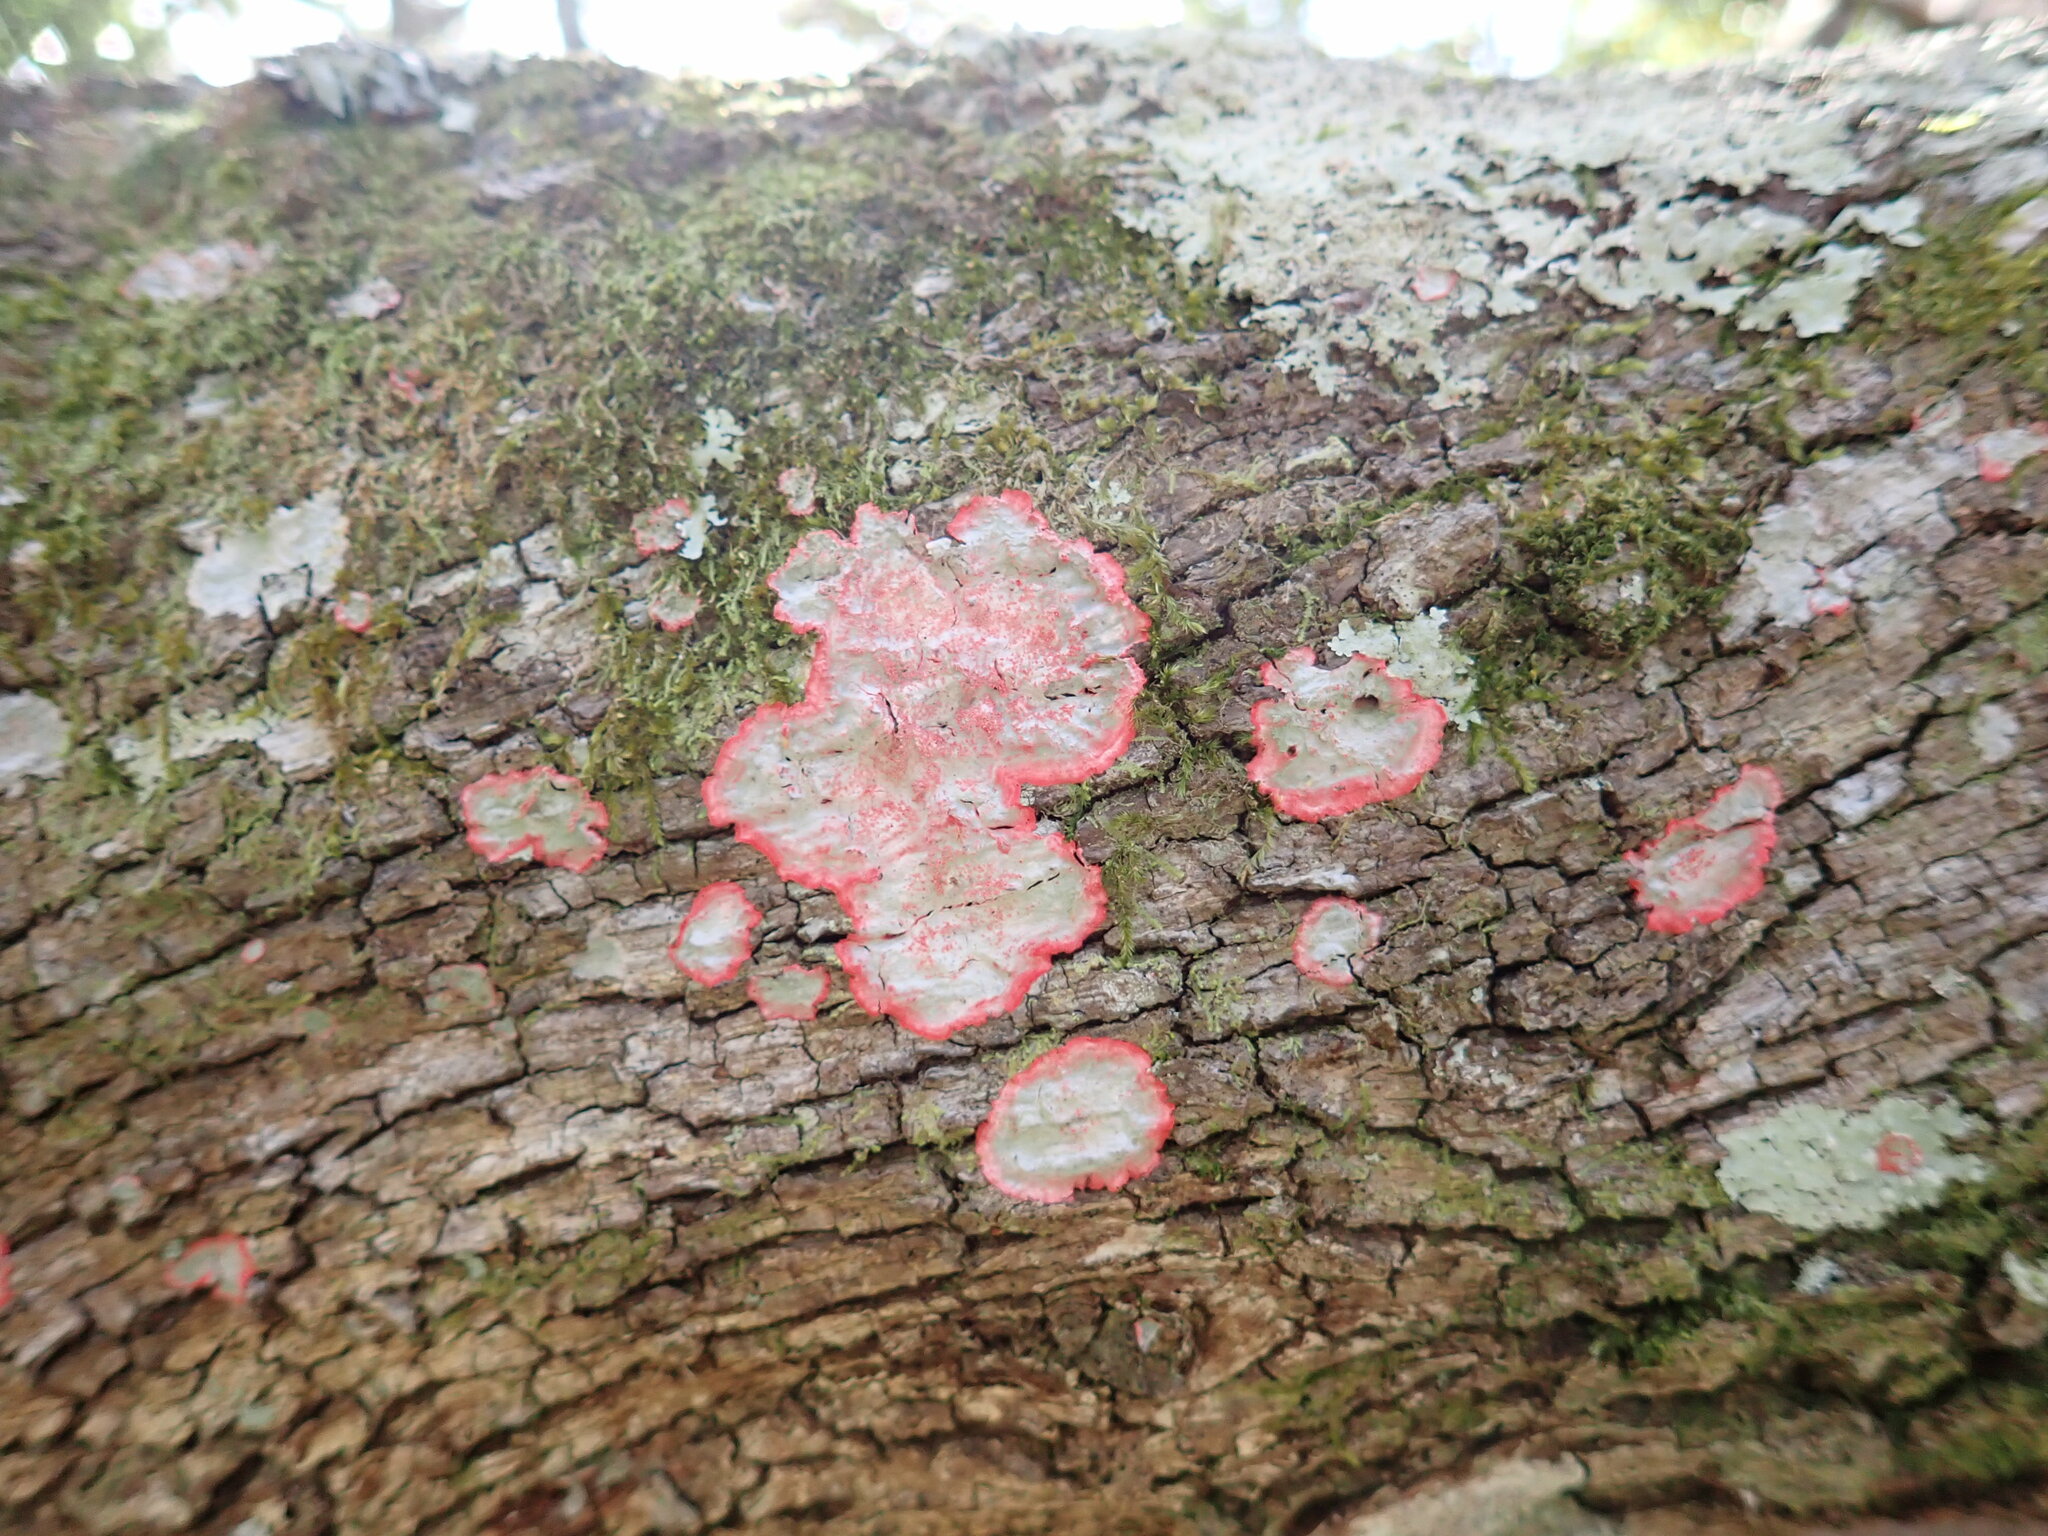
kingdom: Fungi
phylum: Ascomycota
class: Arthoniomycetes
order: Arthoniales
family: Arthoniaceae
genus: Herpothallon
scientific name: Herpothallon rubrocinctum
